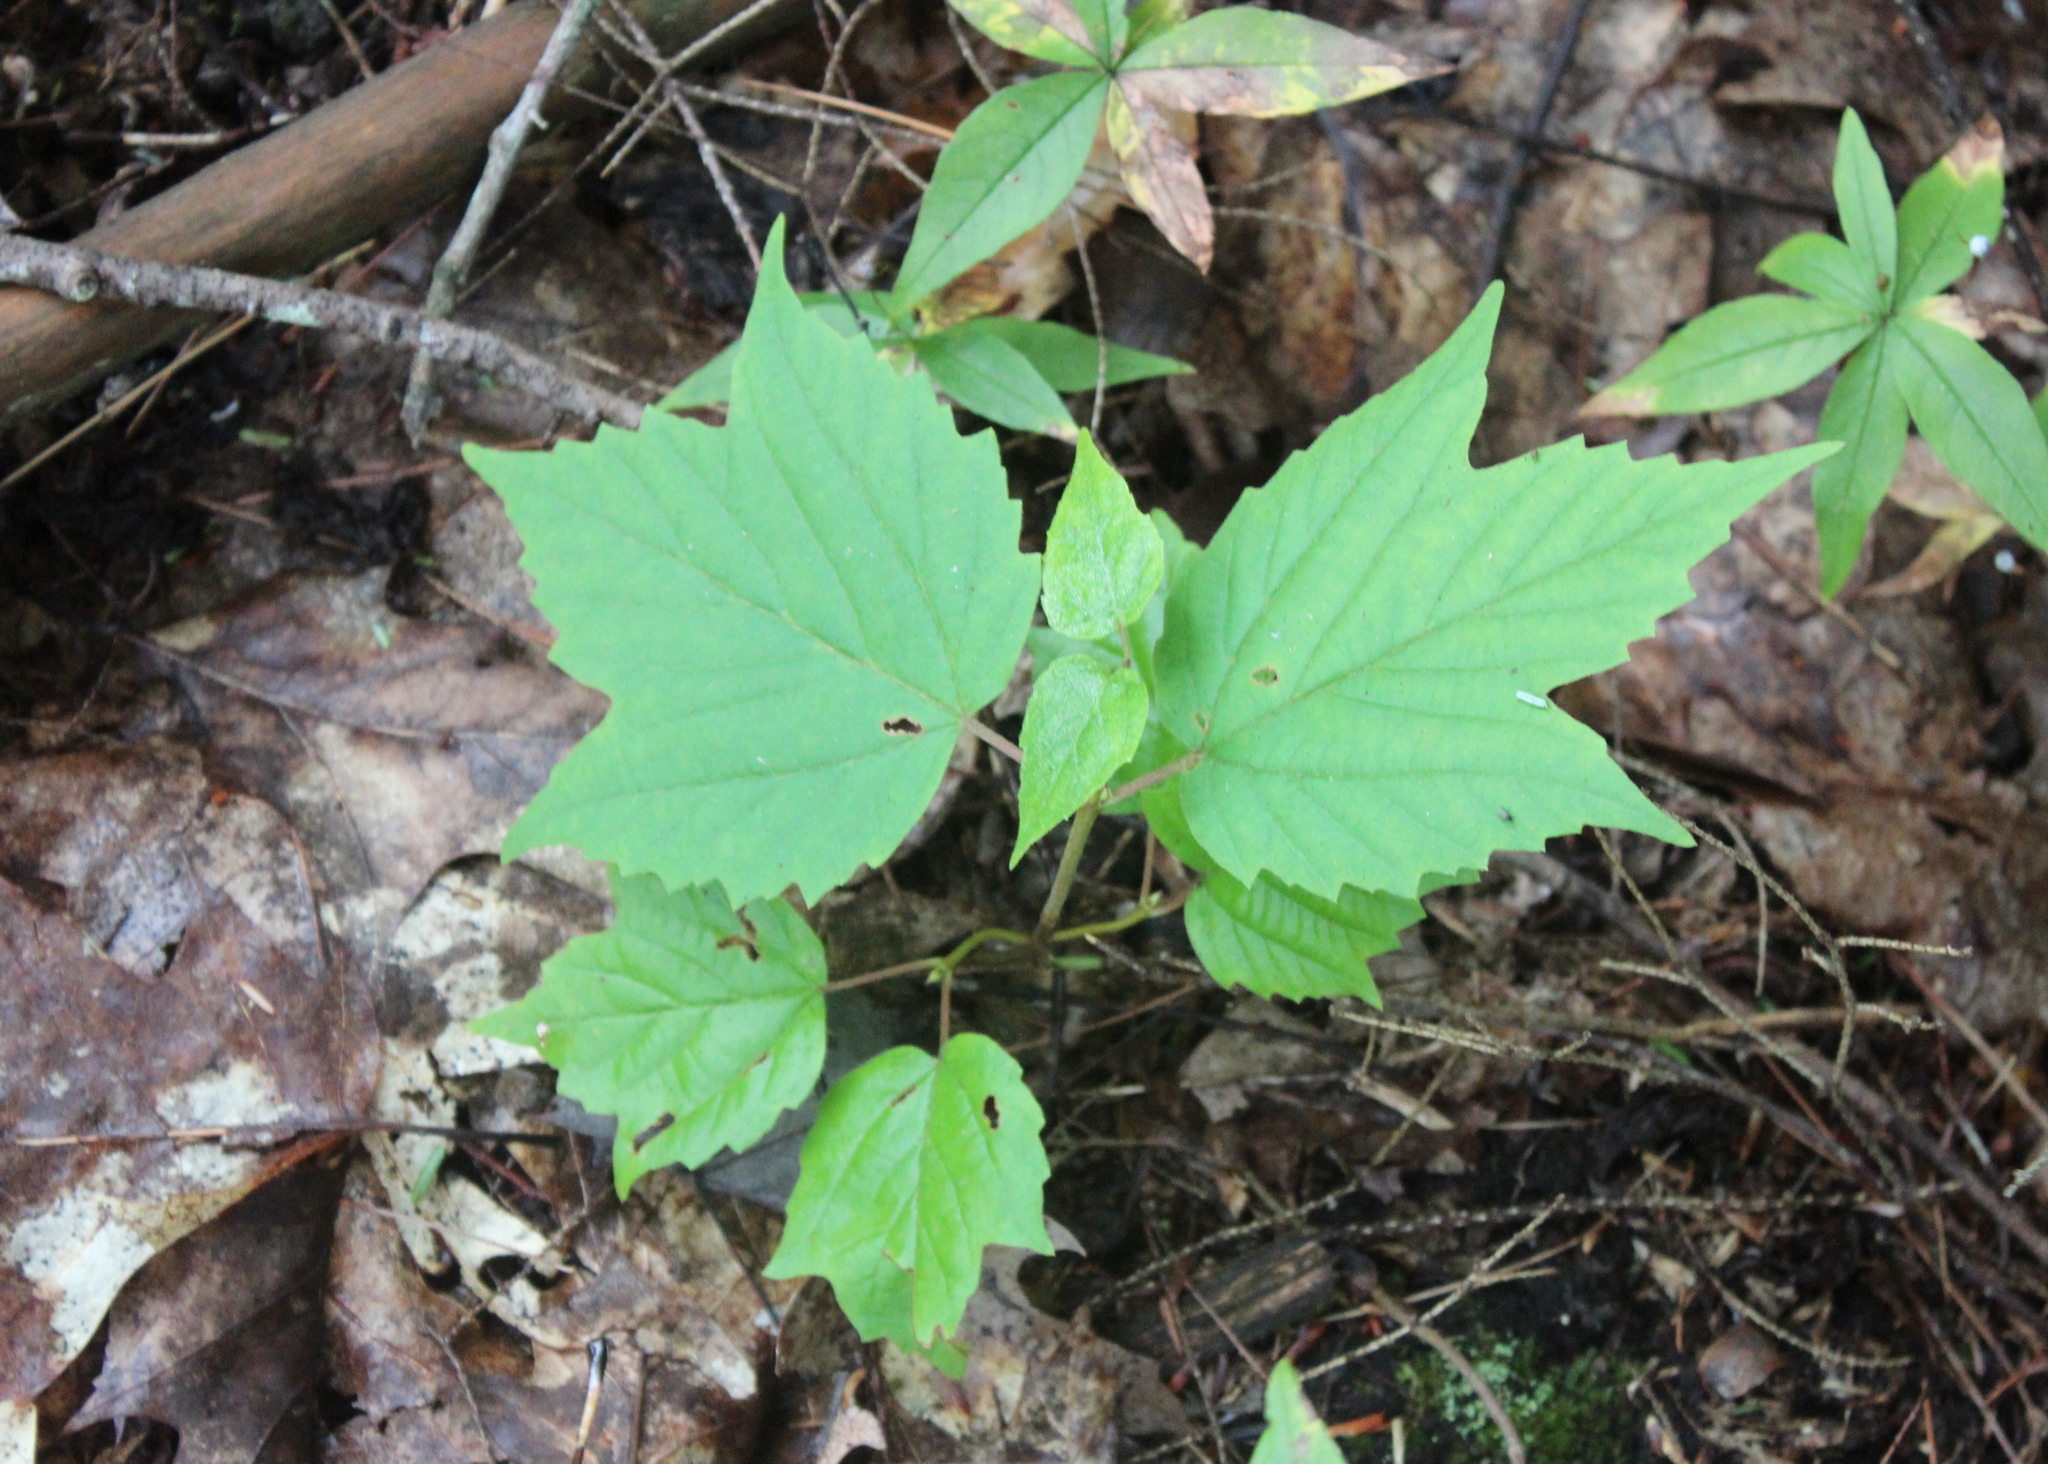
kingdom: Plantae
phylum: Tracheophyta
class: Magnoliopsida
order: Dipsacales
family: Viburnaceae
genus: Viburnum
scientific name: Viburnum acerifolium
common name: Dockmackie
